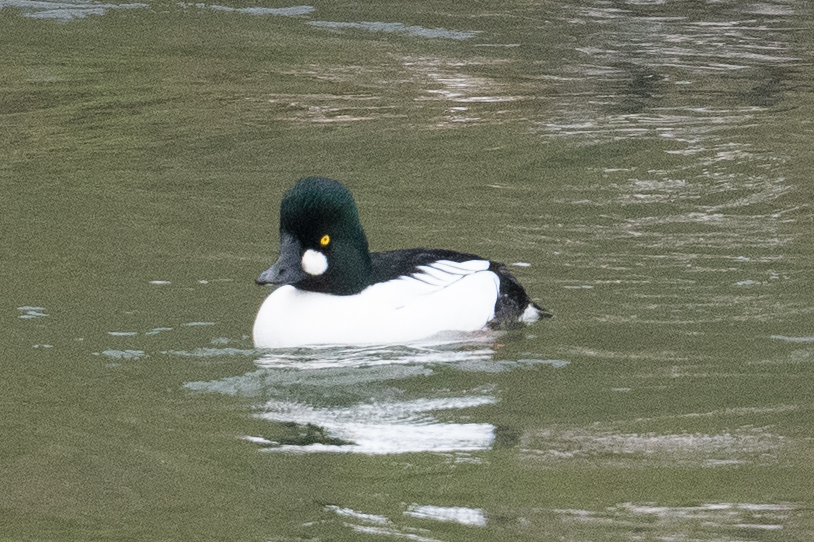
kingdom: Animalia
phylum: Chordata
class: Aves
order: Anseriformes
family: Anatidae
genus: Bucephala
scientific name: Bucephala clangula
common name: Common goldeneye
